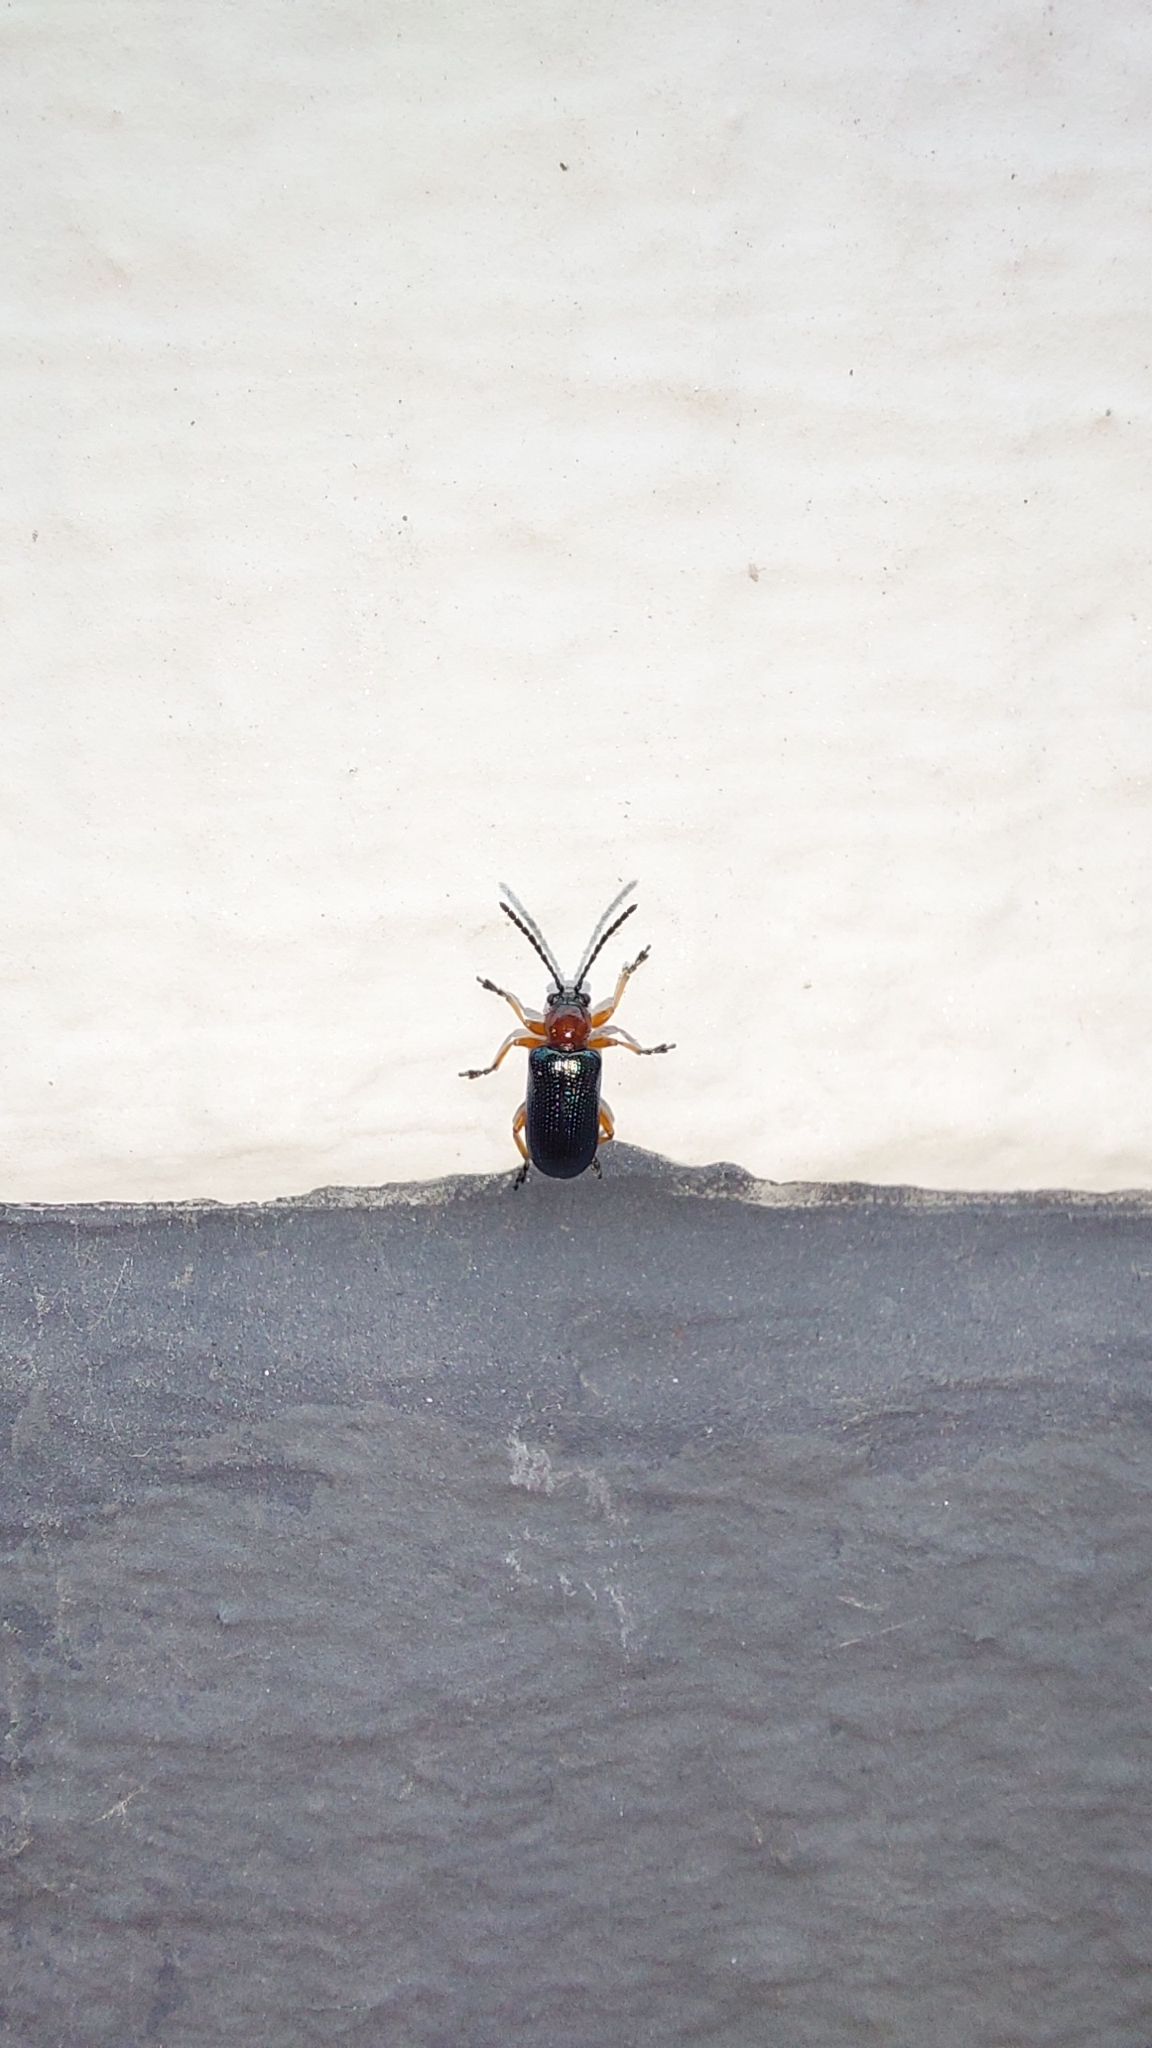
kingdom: Animalia
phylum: Arthropoda
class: Insecta
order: Coleoptera
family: Chrysomelidae
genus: Oulema
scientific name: Oulema
